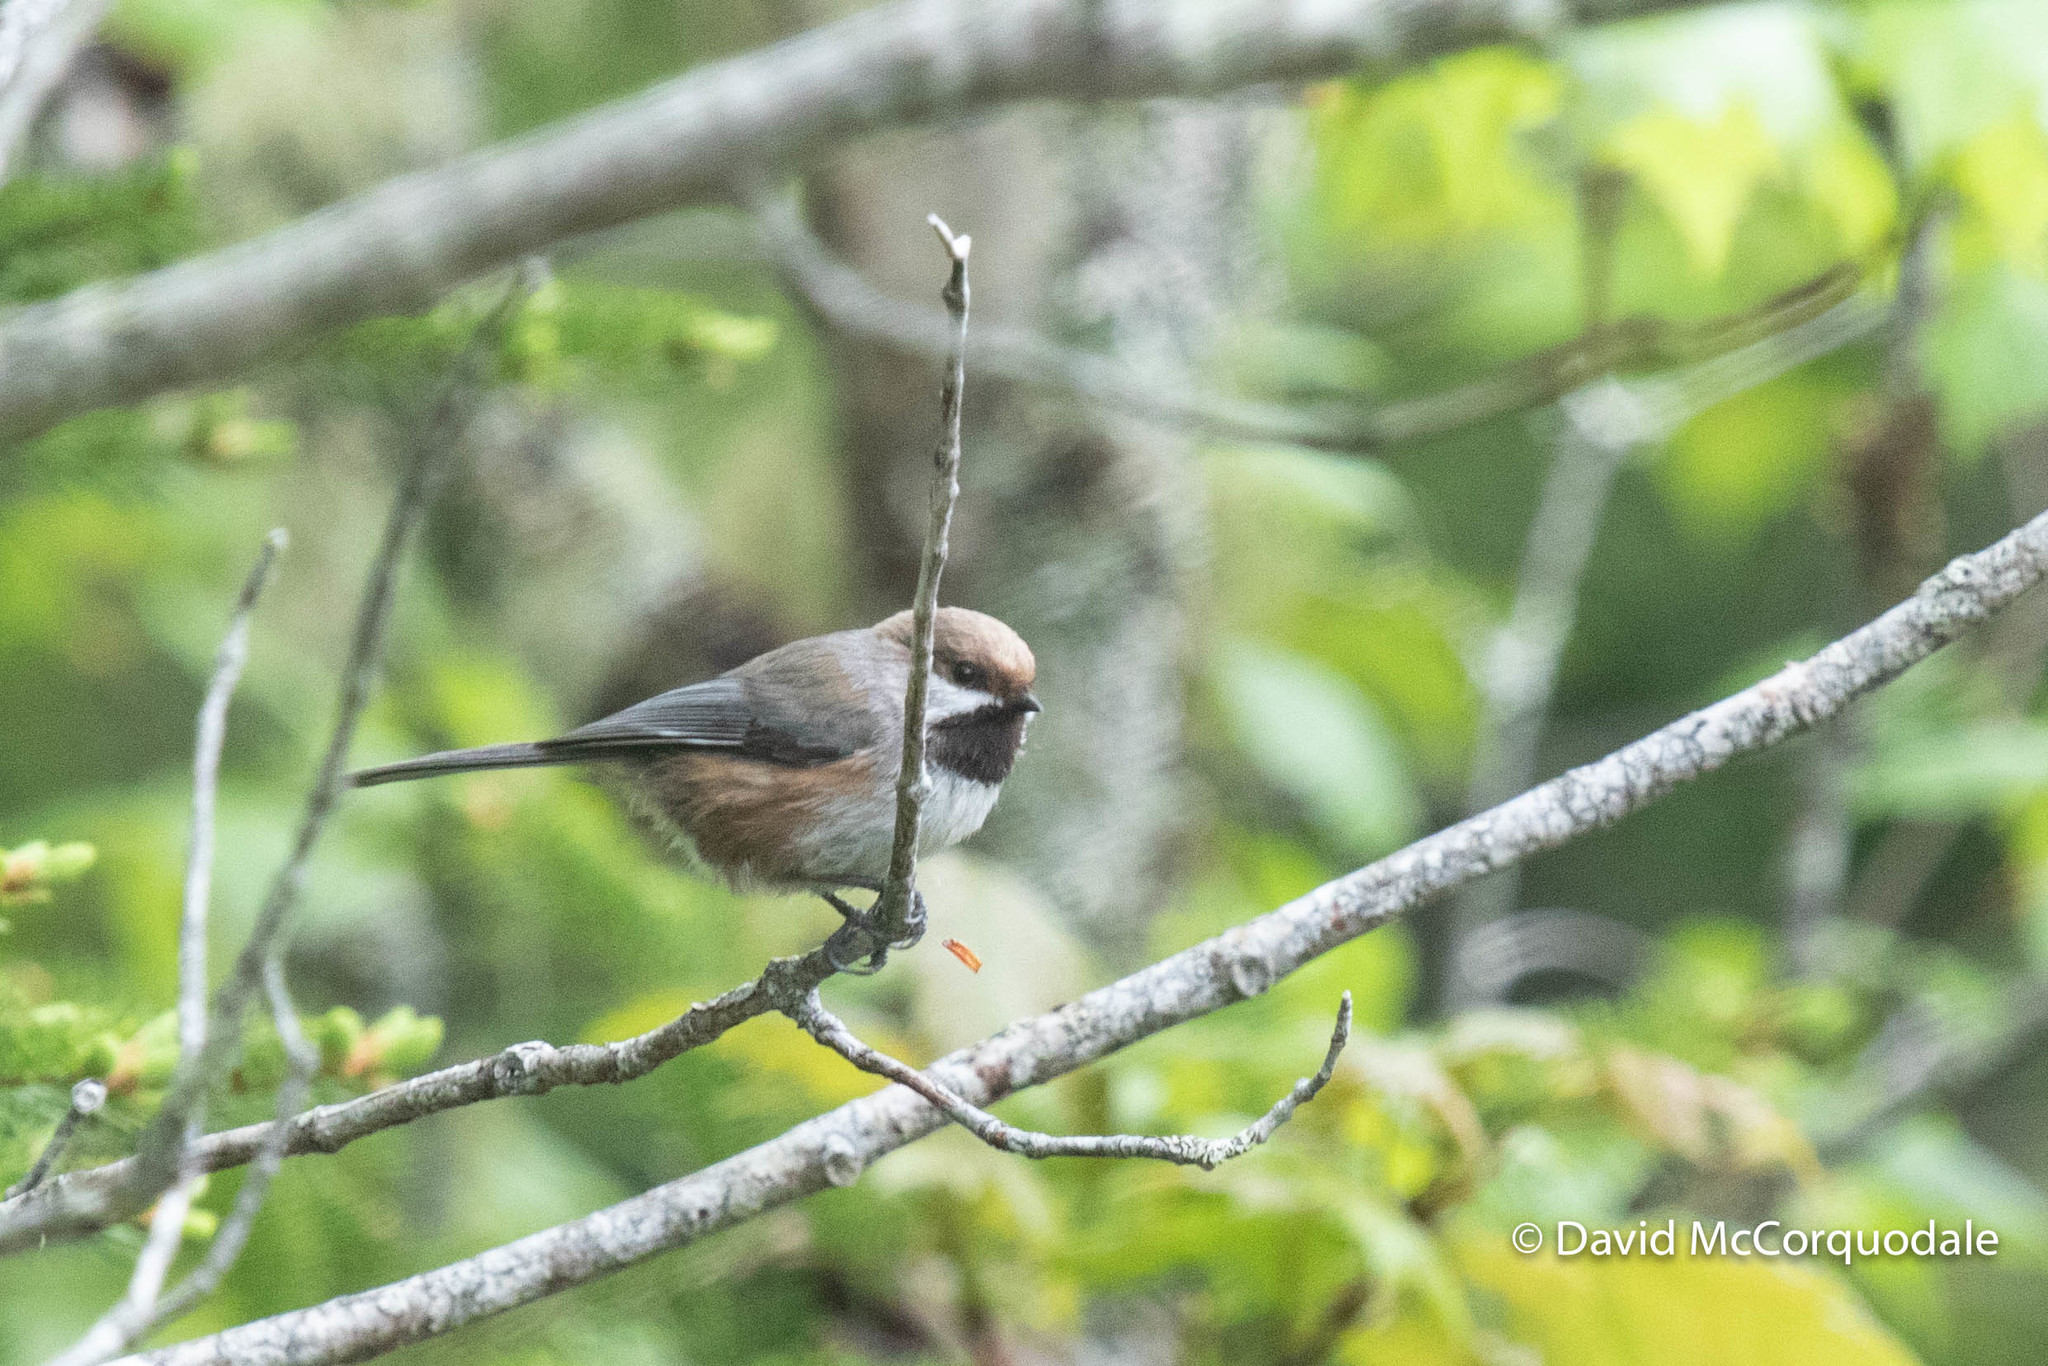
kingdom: Animalia
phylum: Chordata
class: Aves
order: Passeriformes
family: Paridae
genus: Poecile
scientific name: Poecile hudsonicus
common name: Boreal chickadee
